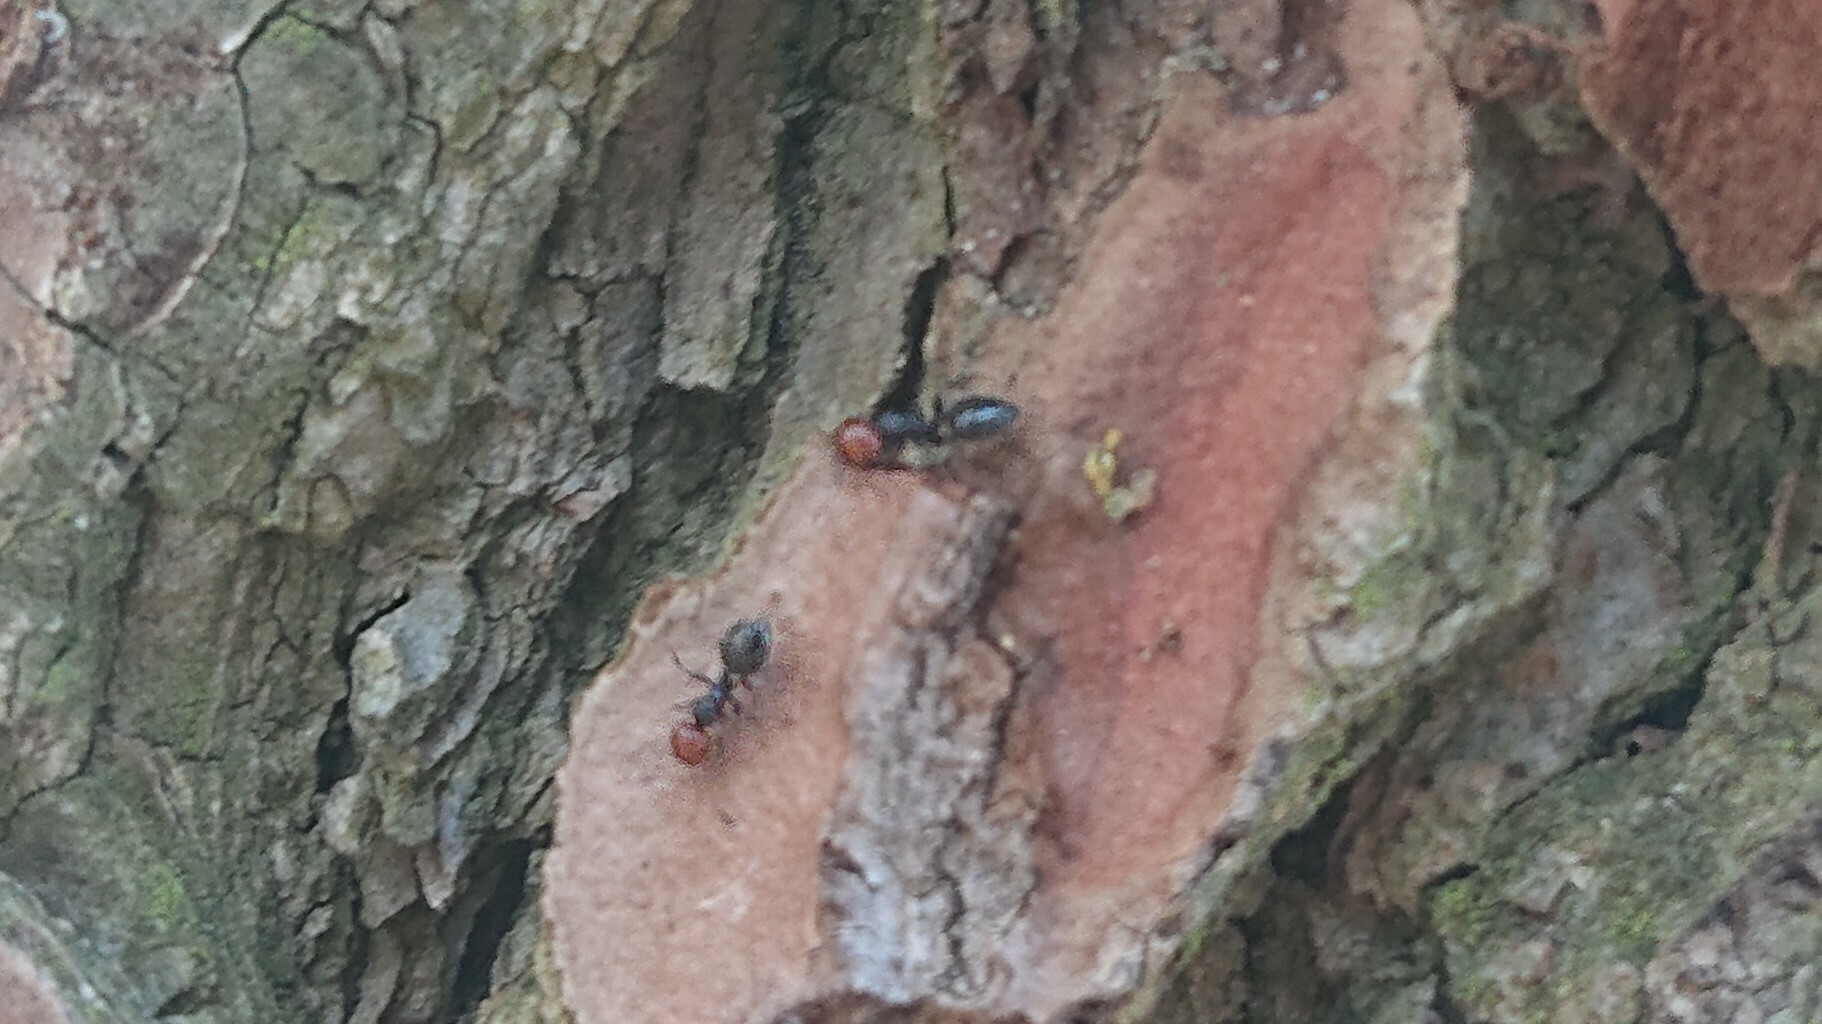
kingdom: Animalia
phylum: Arthropoda
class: Insecta
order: Hymenoptera
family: Formicidae
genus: Crematogaster
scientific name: Crematogaster scutellaris
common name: Fourmi du liège
